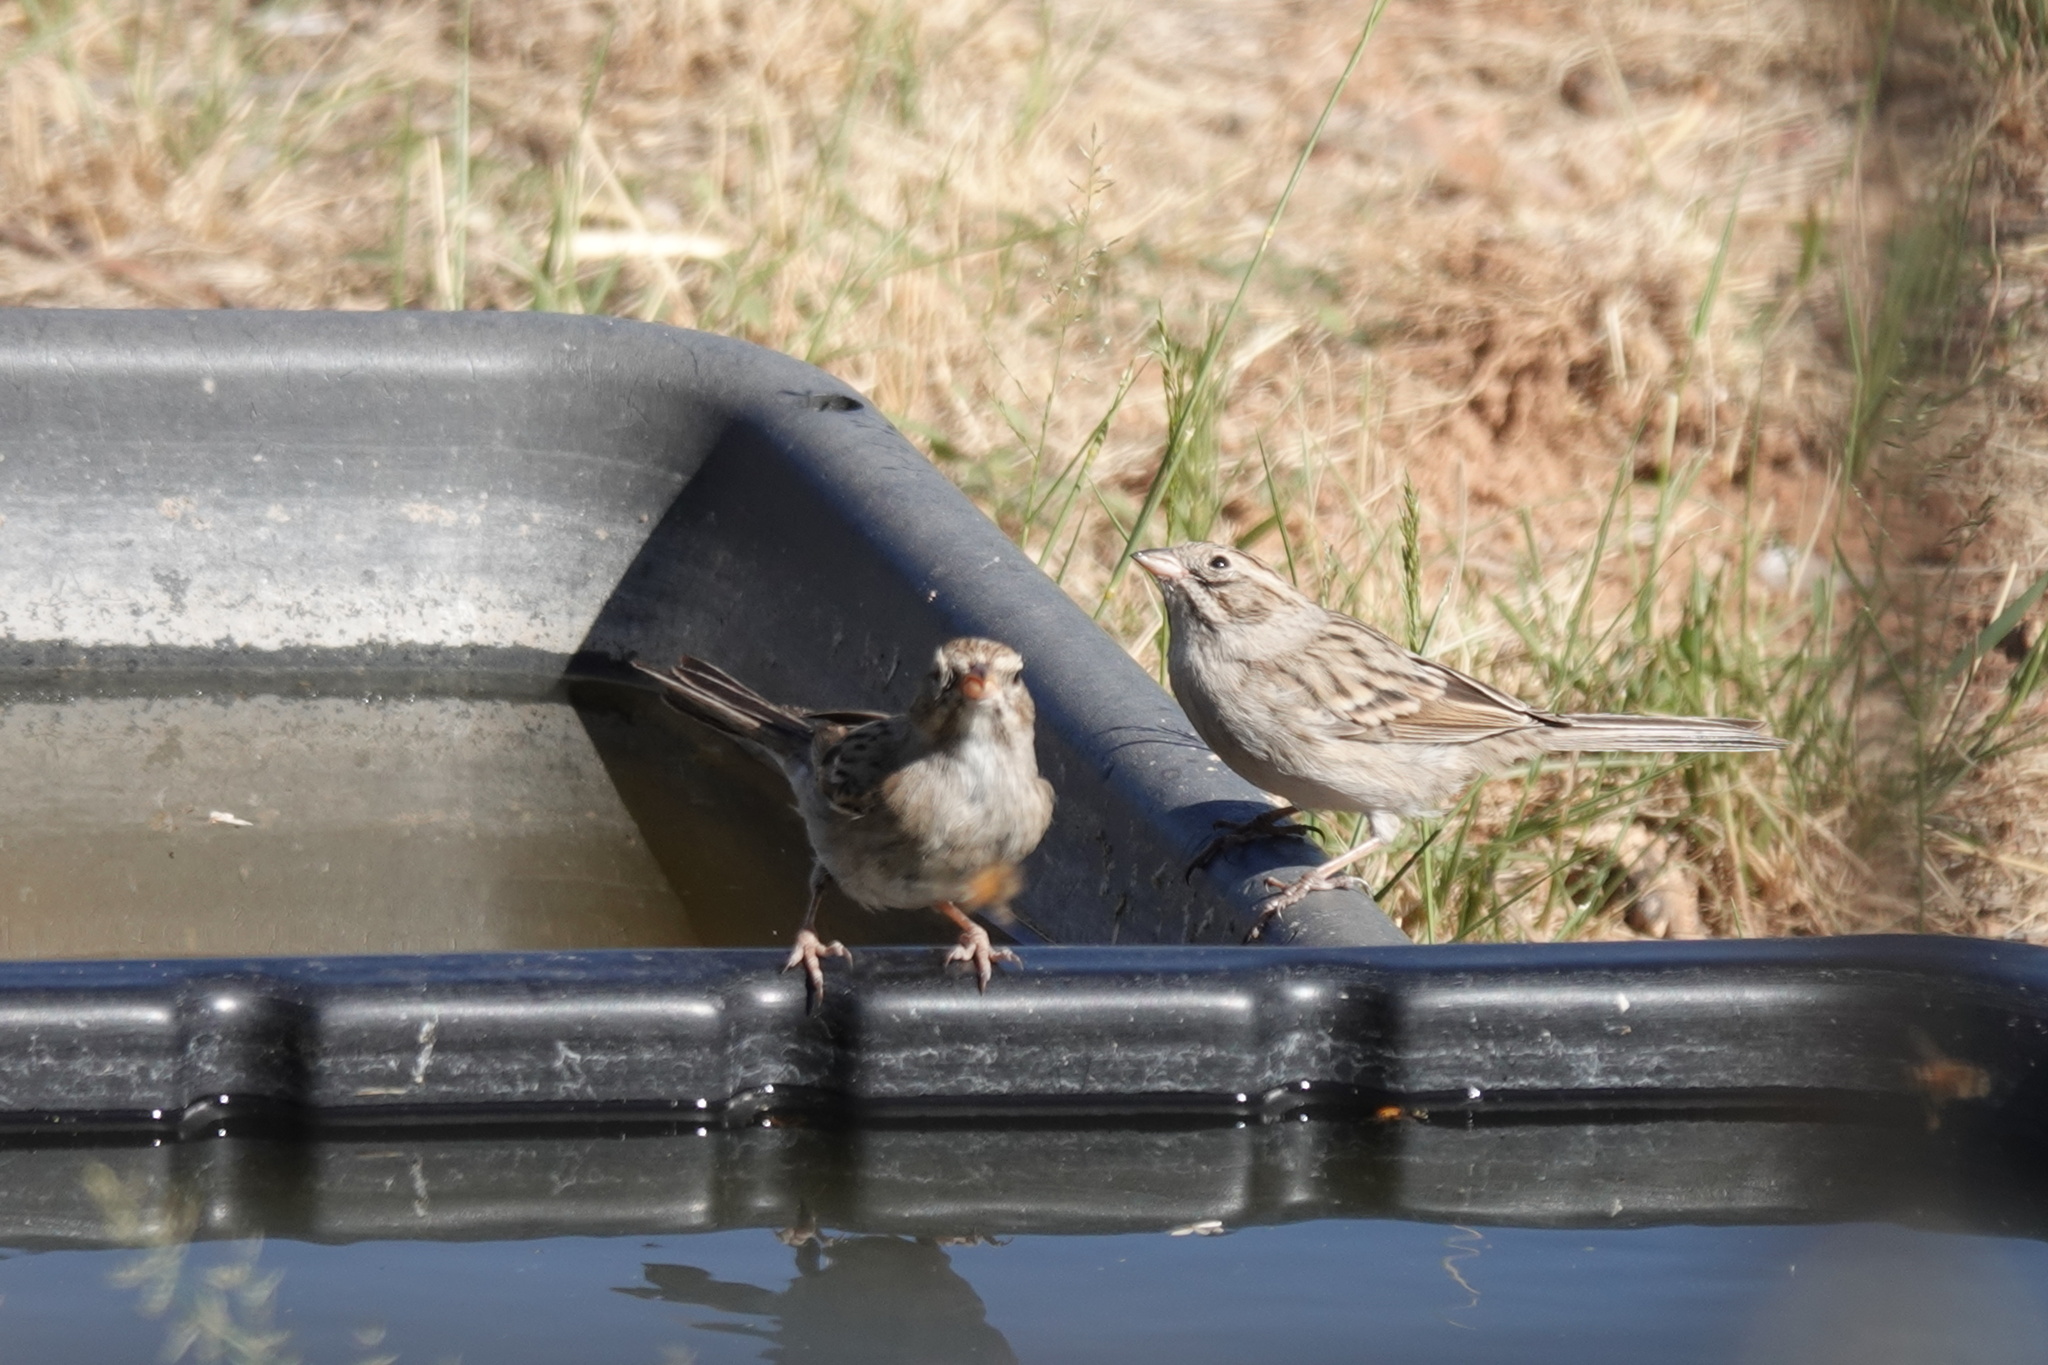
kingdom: Animalia
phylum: Chordata
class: Aves
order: Passeriformes
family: Passerellidae
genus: Spizella
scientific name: Spizella breweri
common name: Brewer's sparrow
